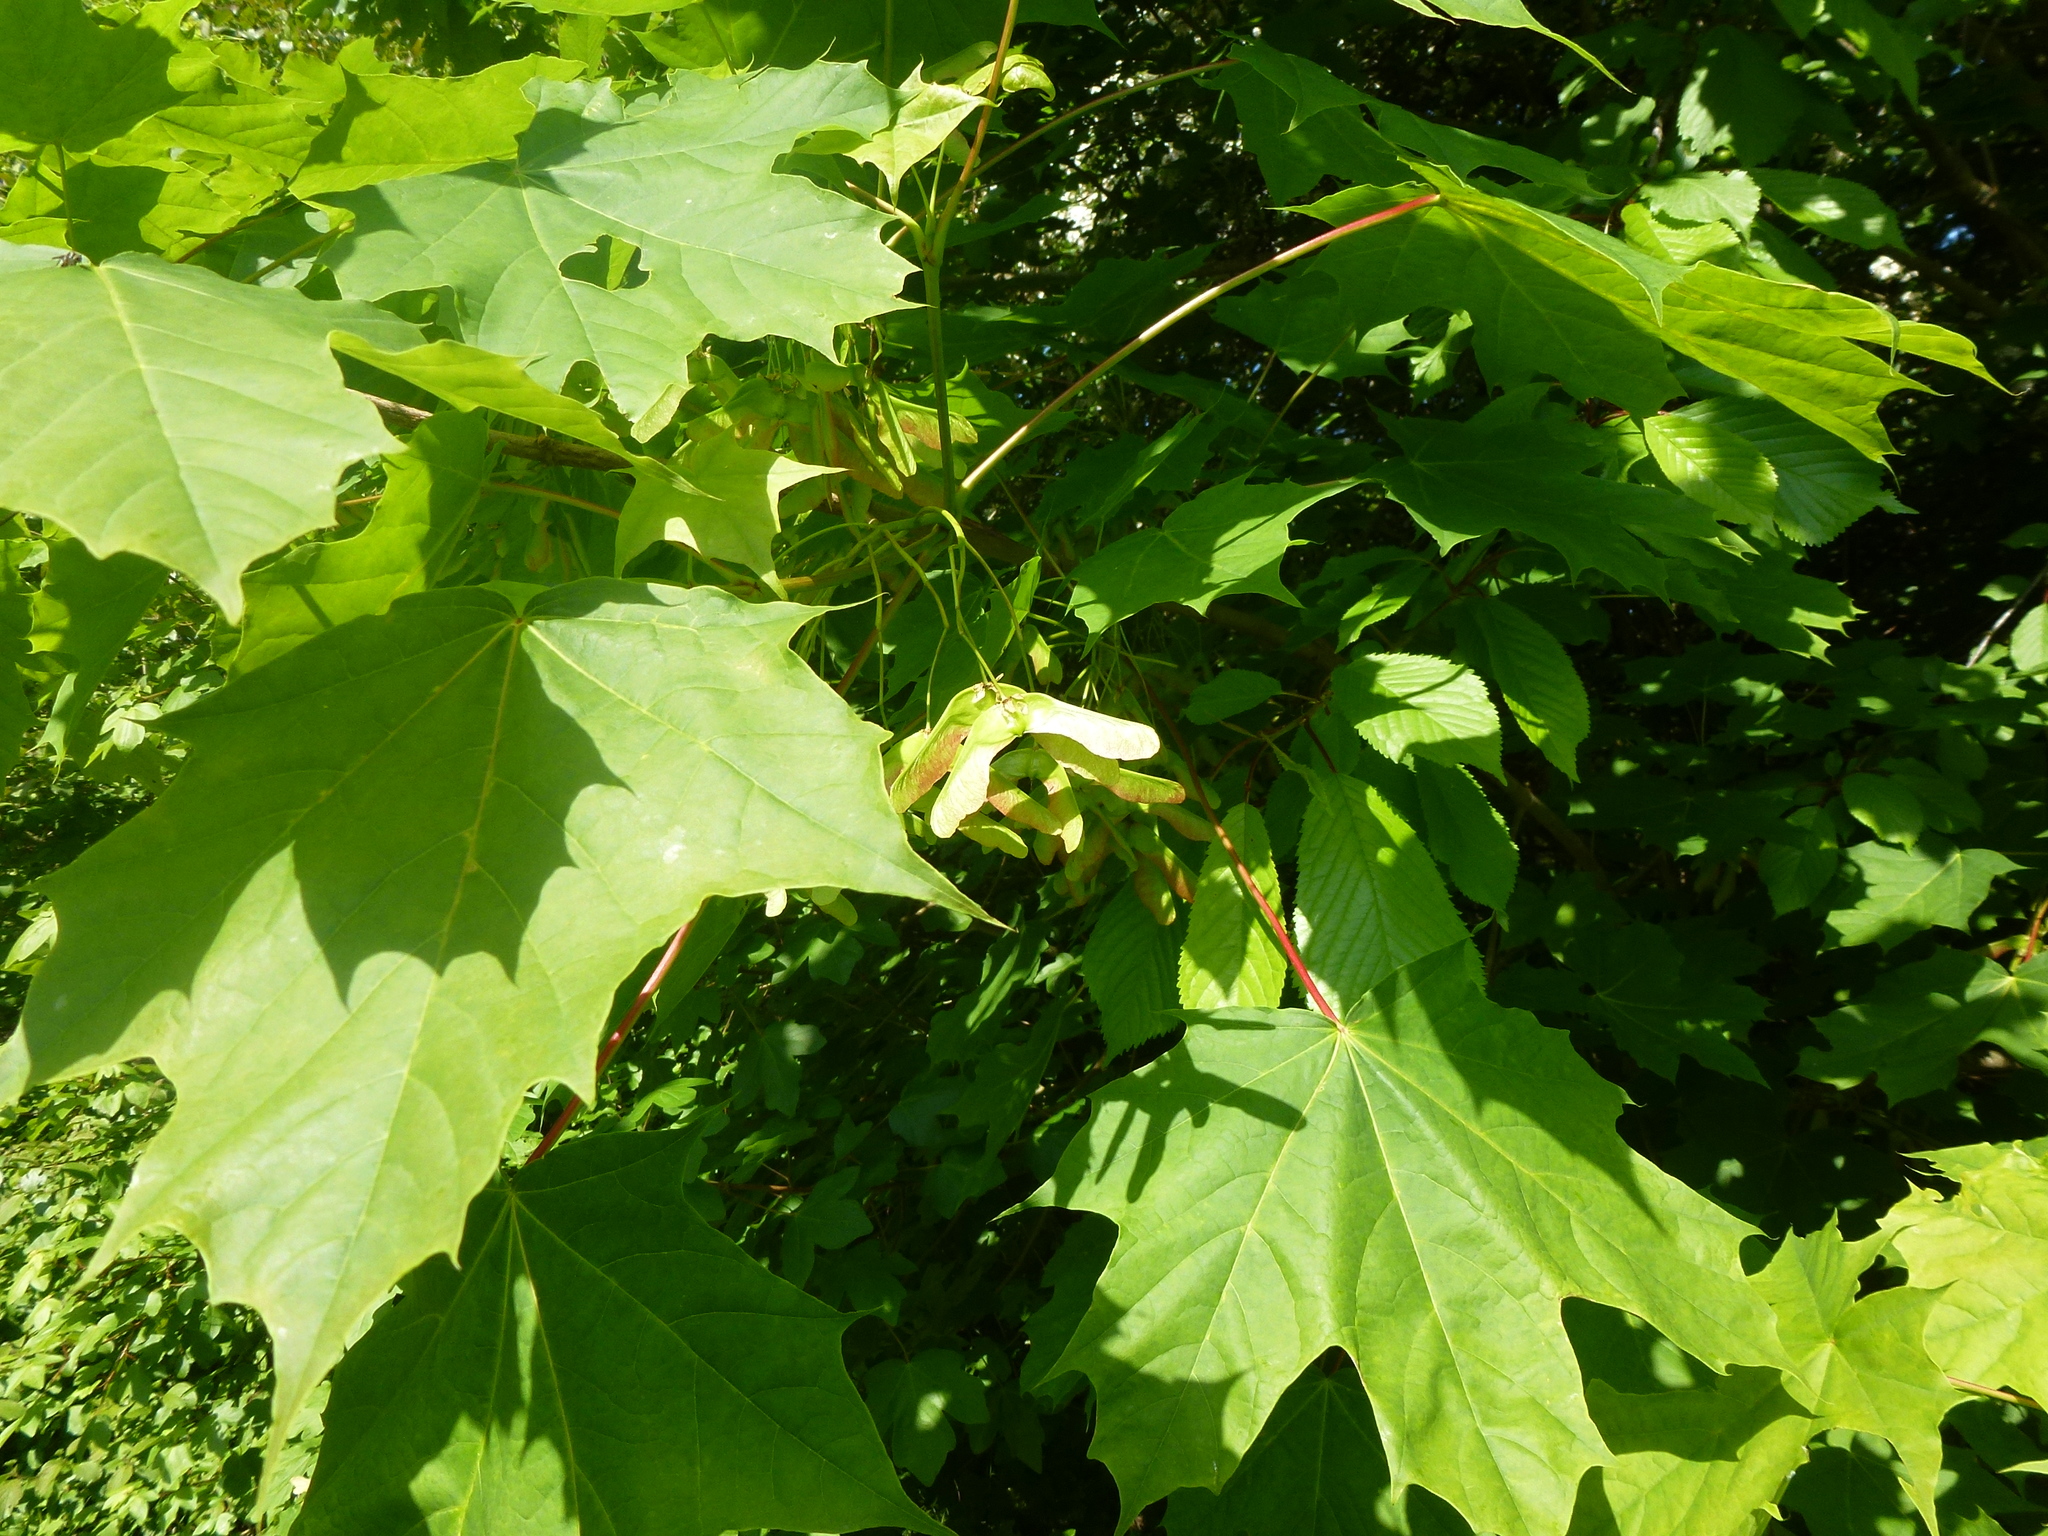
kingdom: Plantae
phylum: Tracheophyta
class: Magnoliopsida
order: Sapindales
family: Sapindaceae
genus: Acer
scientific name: Acer platanoides
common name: Norway maple
